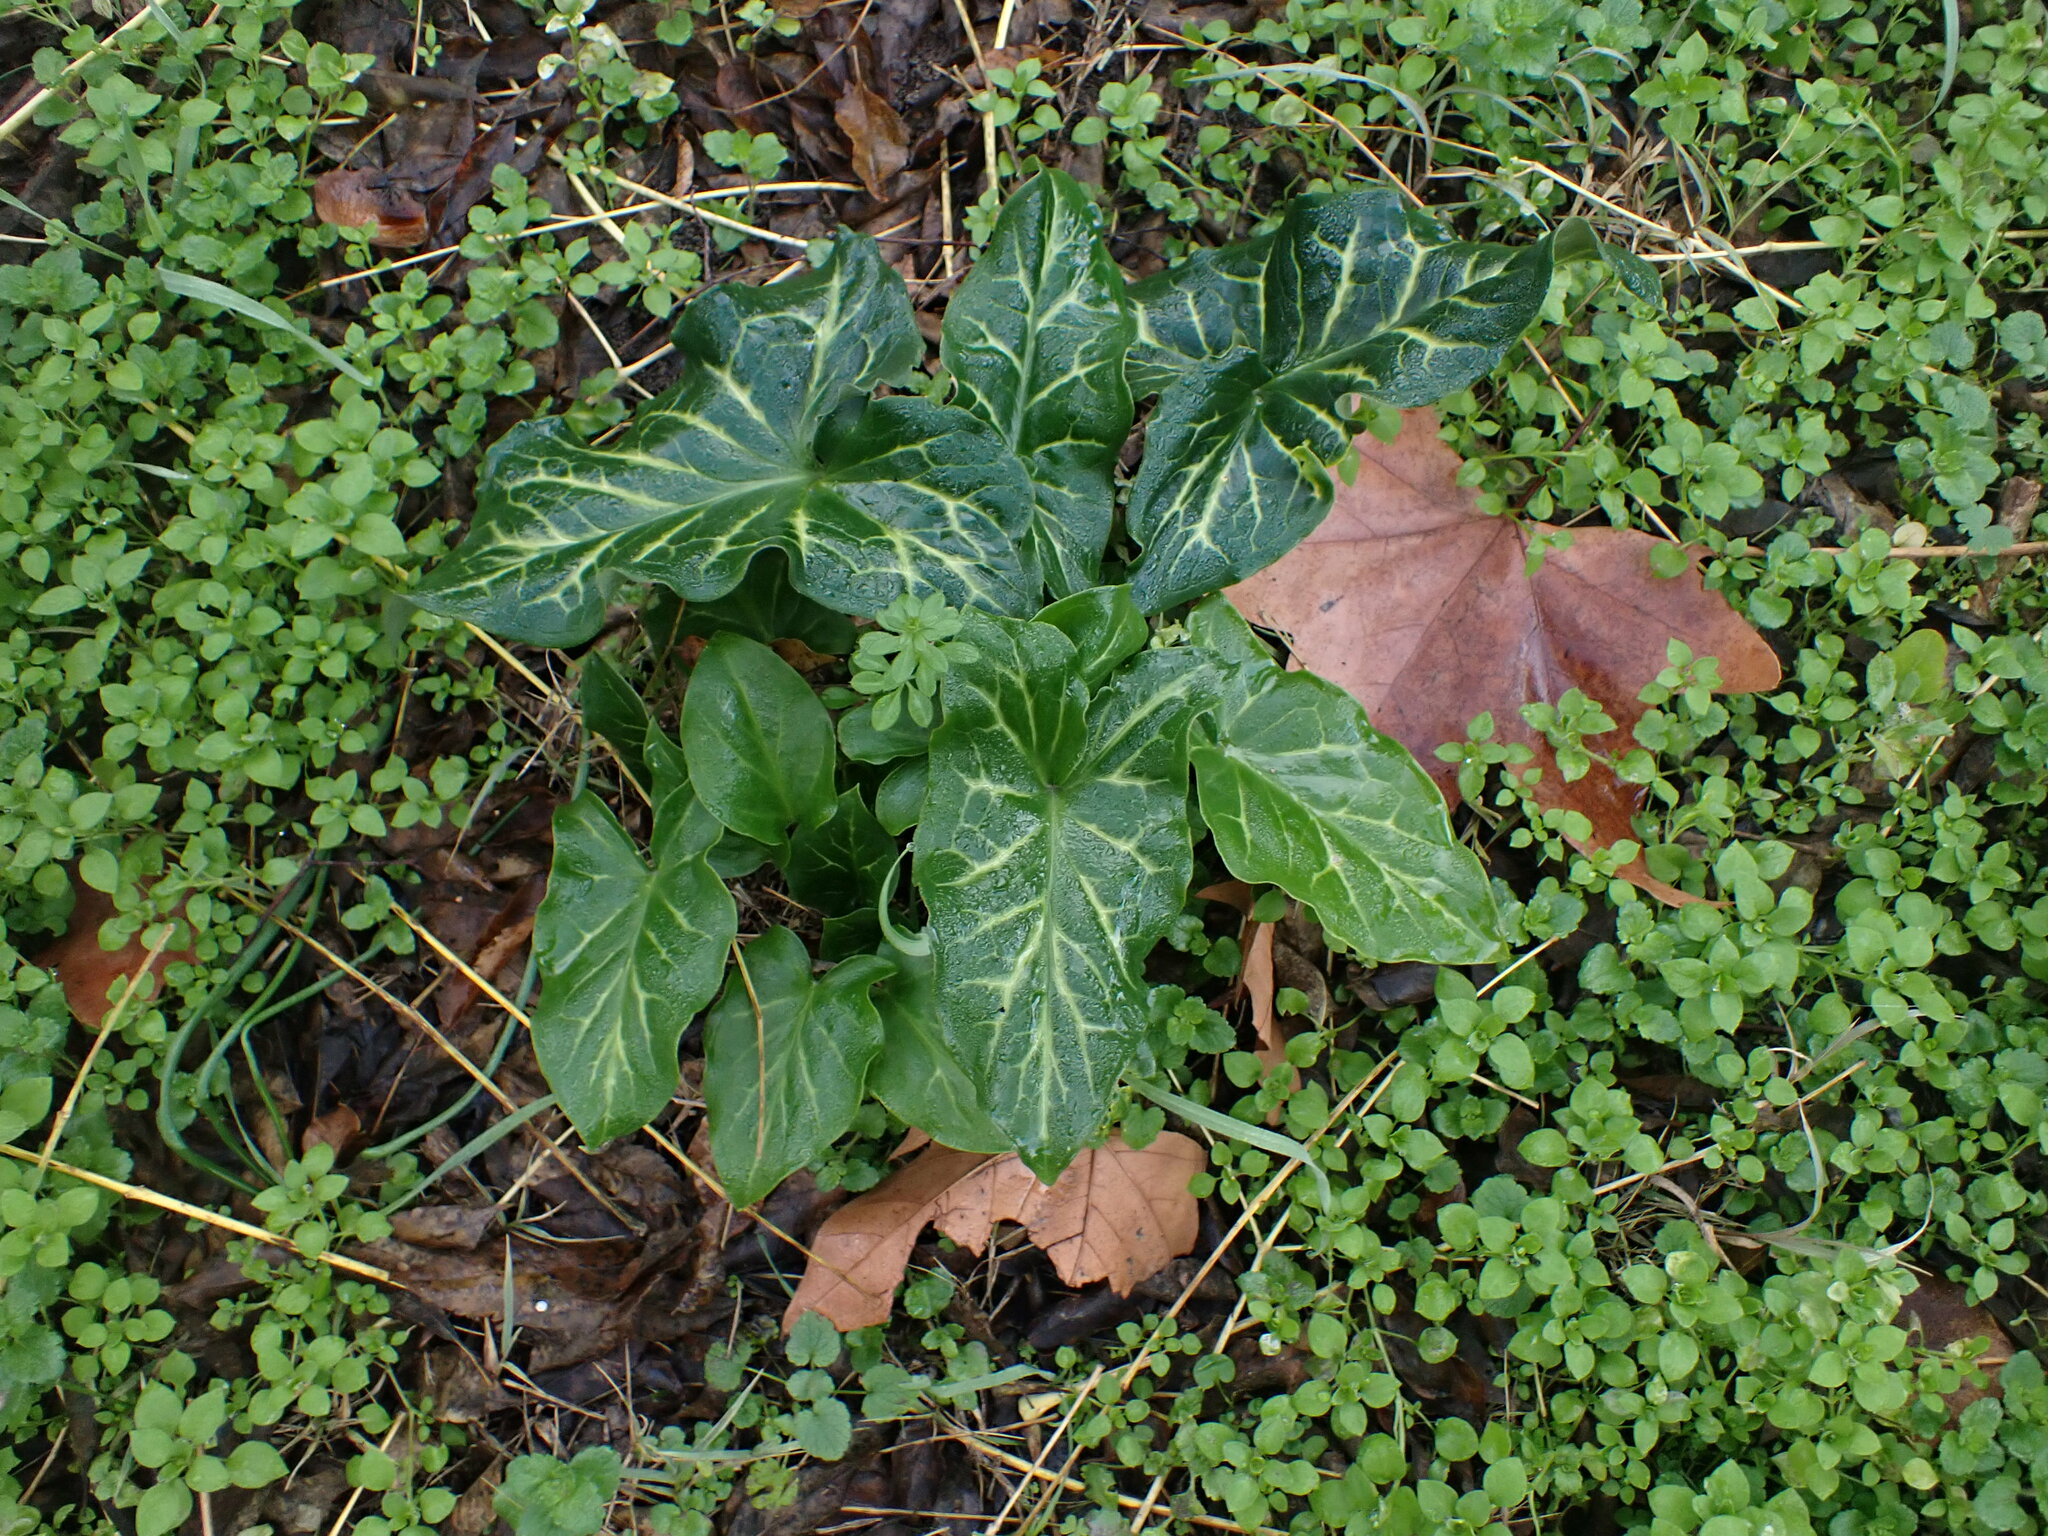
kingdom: Plantae
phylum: Tracheophyta
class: Liliopsida
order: Alismatales
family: Araceae
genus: Arum
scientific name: Arum italicum
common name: Italian lords-and-ladies
